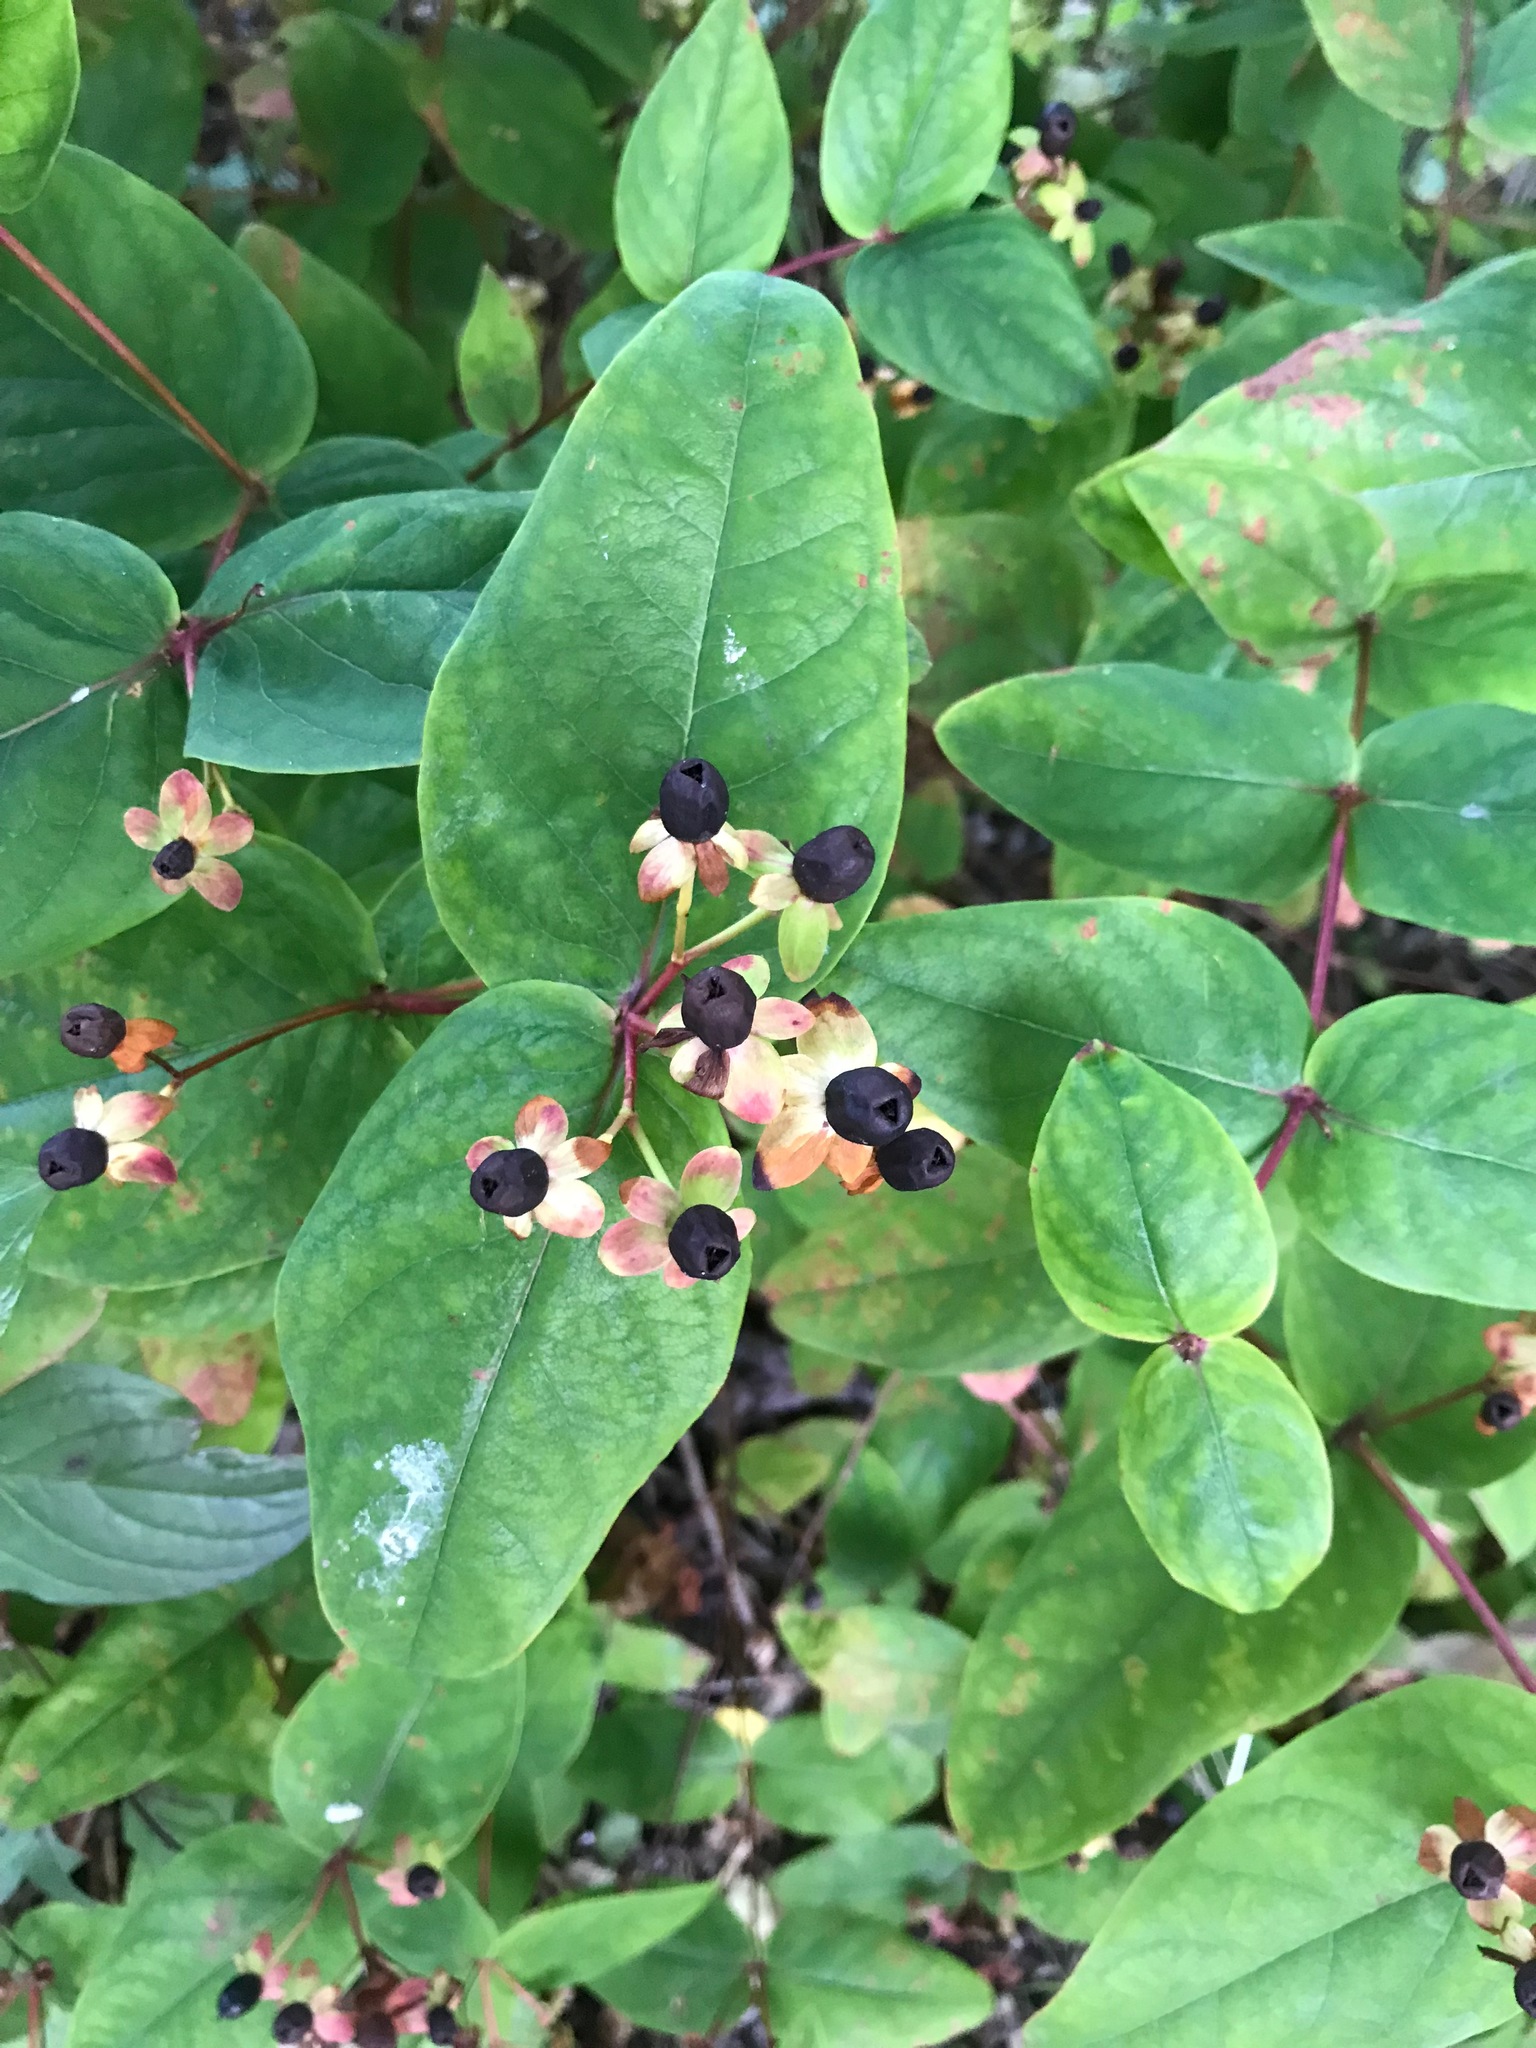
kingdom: Plantae
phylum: Tracheophyta
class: Magnoliopsida
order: Malpighiales
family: Hypericaceae
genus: Hypericum
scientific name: Hypericum androsaemum
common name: Sweet-amber
